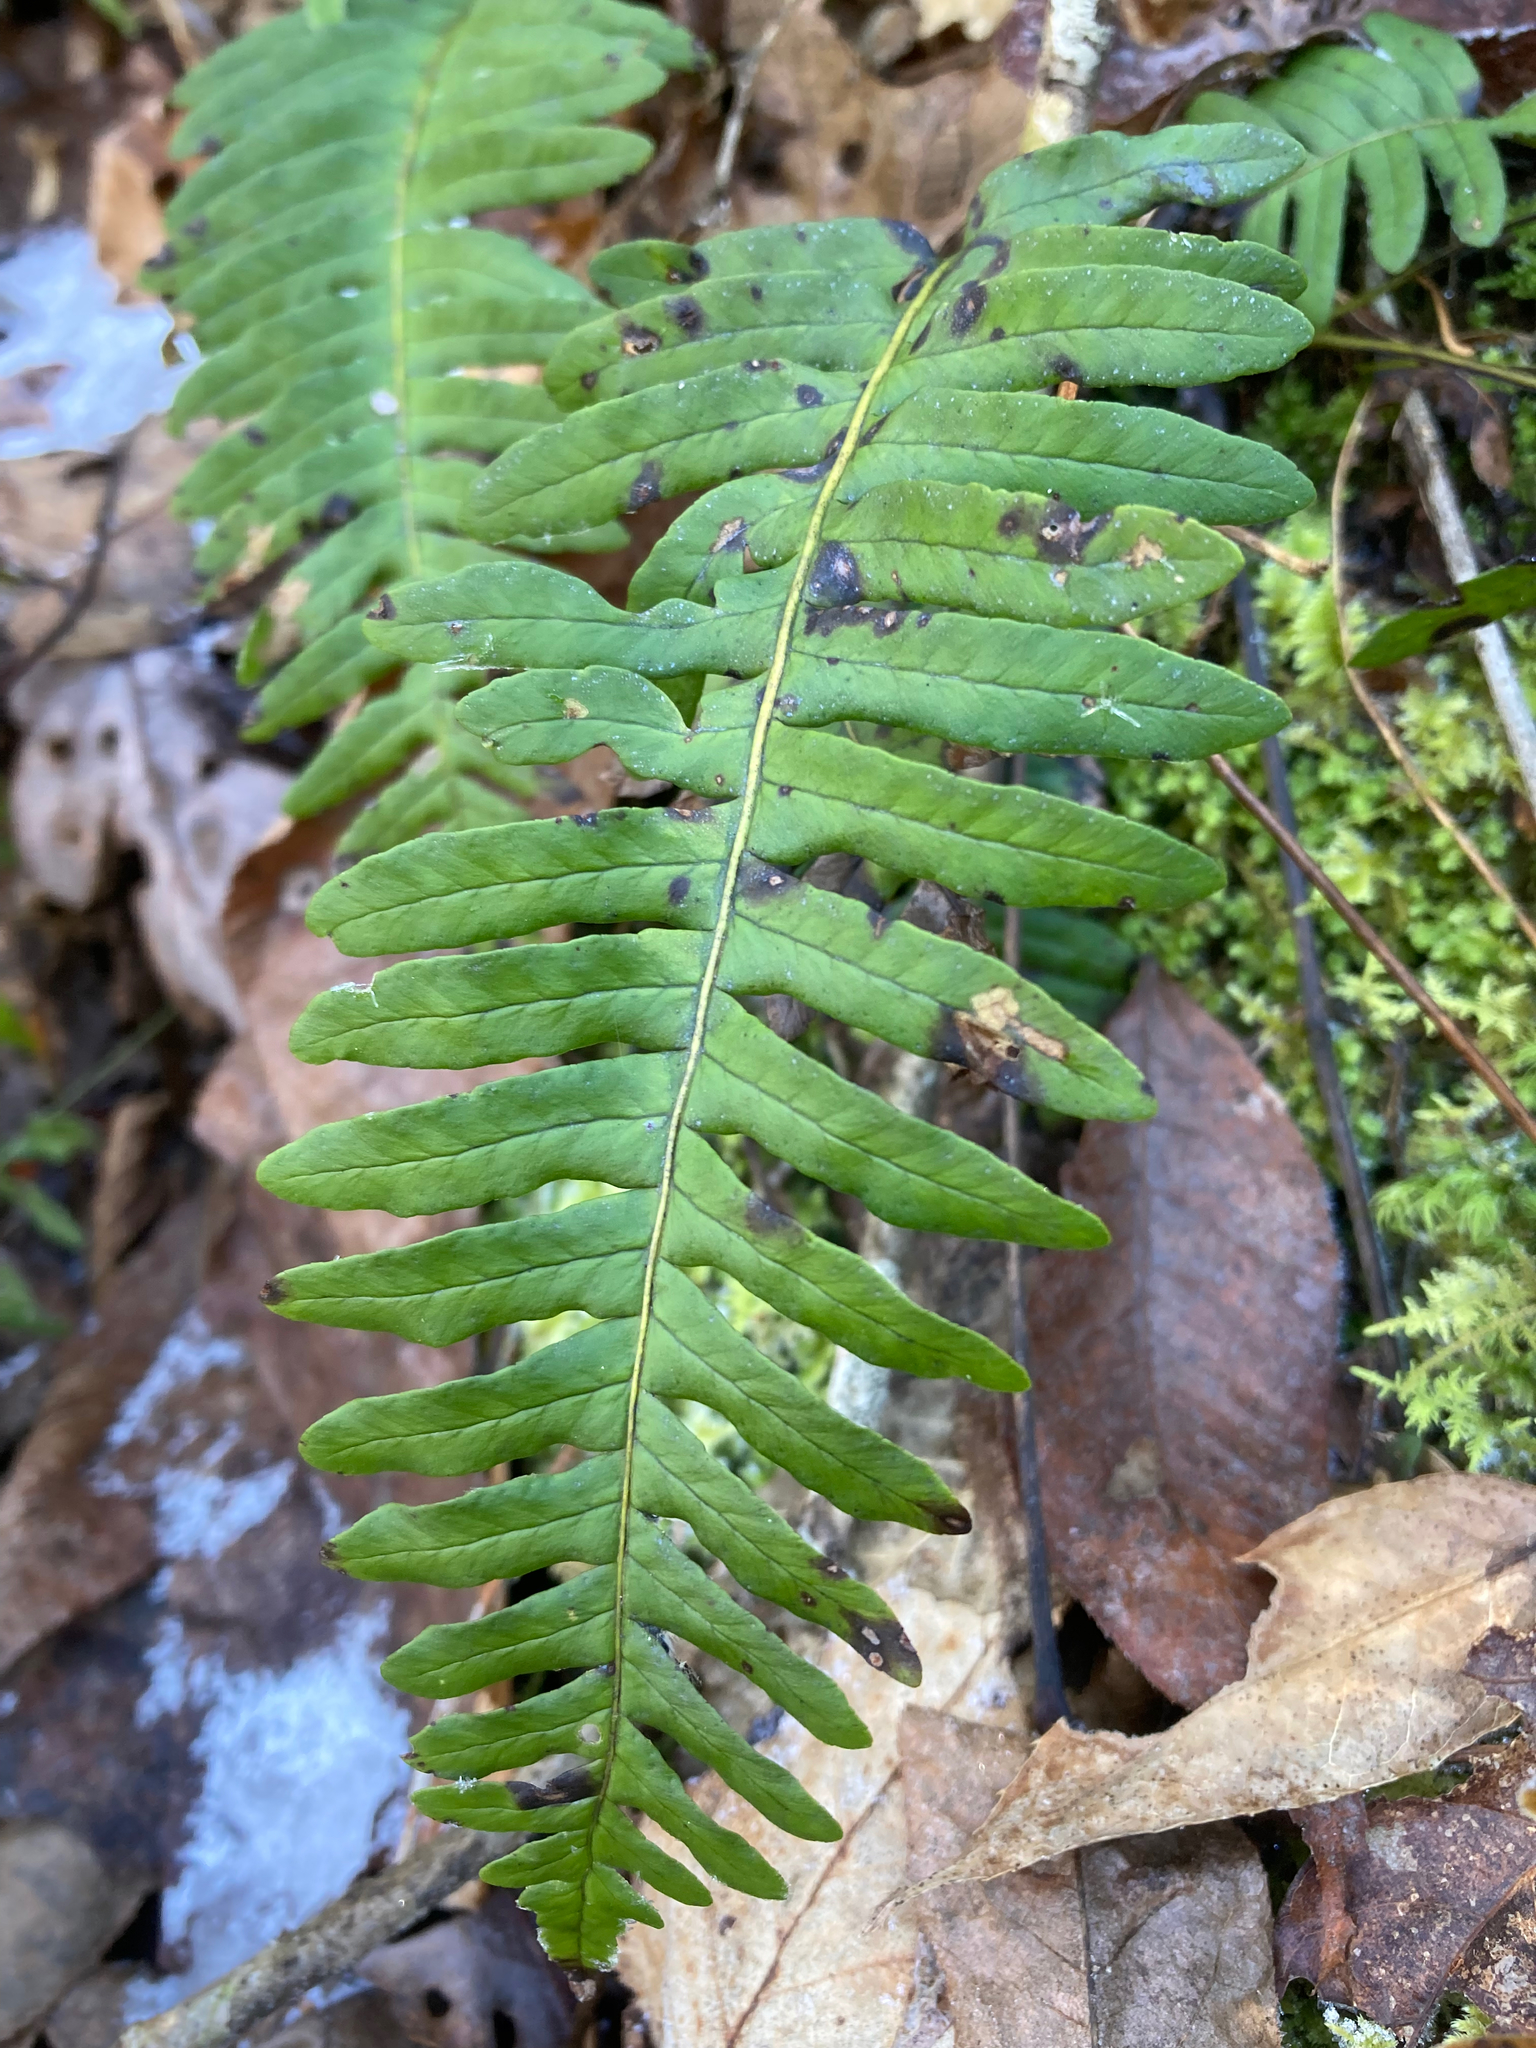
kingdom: Plantae
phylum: Tracheophyta
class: Polypodiopsida
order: Polypodiales
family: Polypodiaceae
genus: Polypodium
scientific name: Polypodium appalachianum
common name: Appalachian polypody
